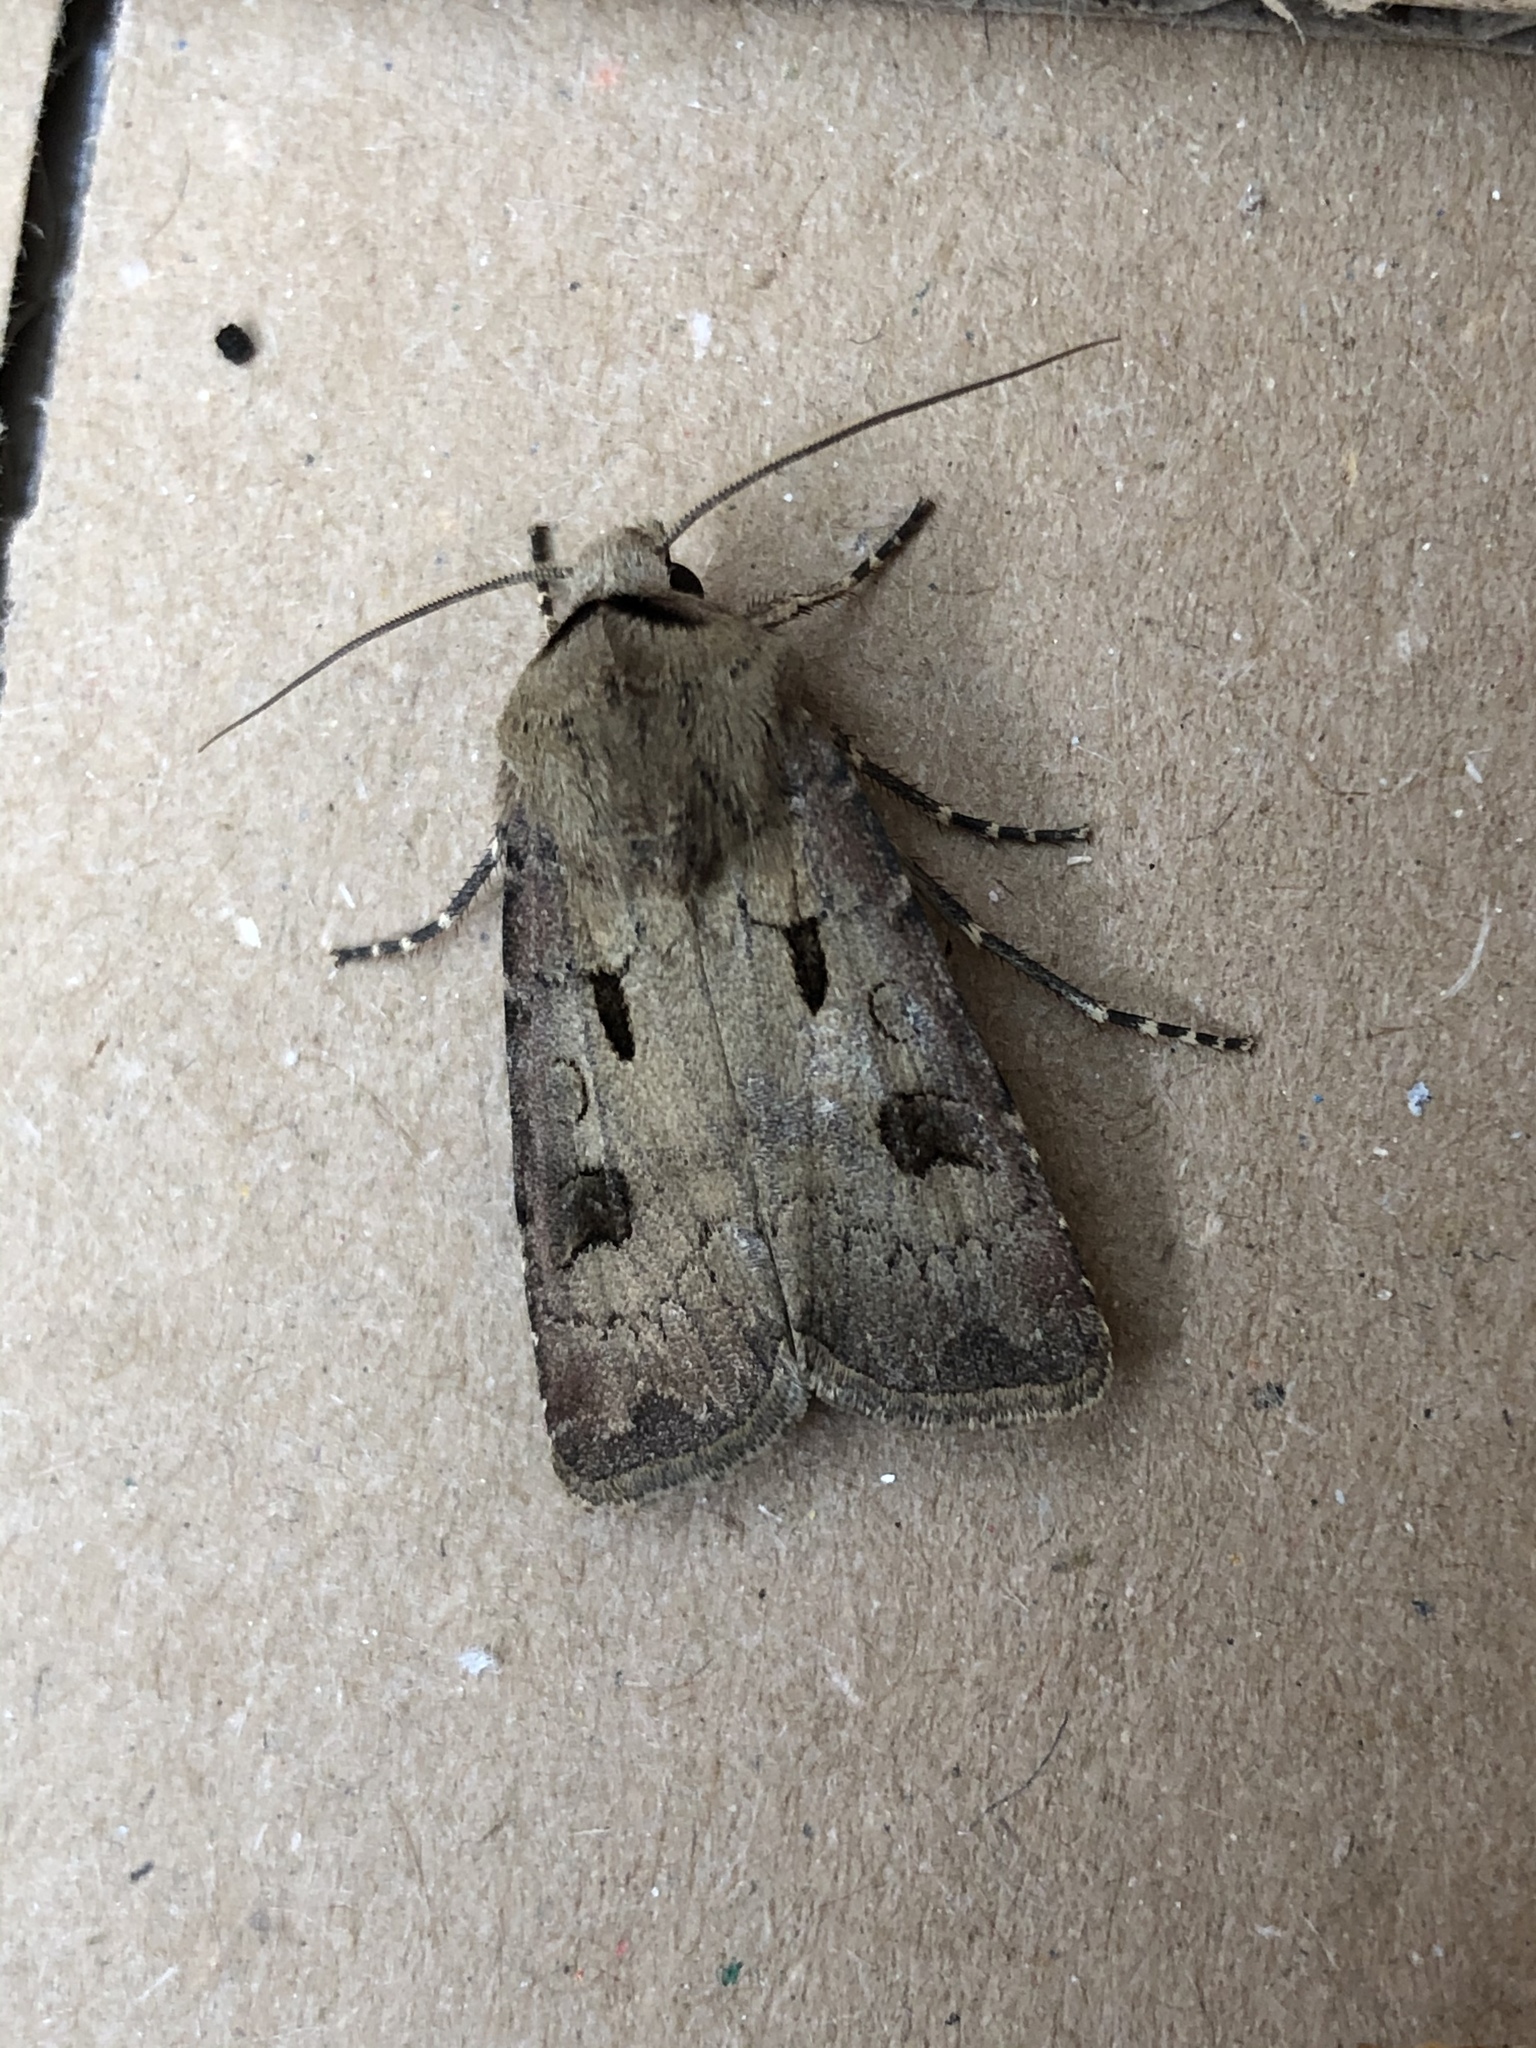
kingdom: Animalia
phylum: Arthropoda
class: Insecta
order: Lepidoptera
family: Noctuidae
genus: Agrotis
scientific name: Agrotis exclamationis
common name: Heart and dart
